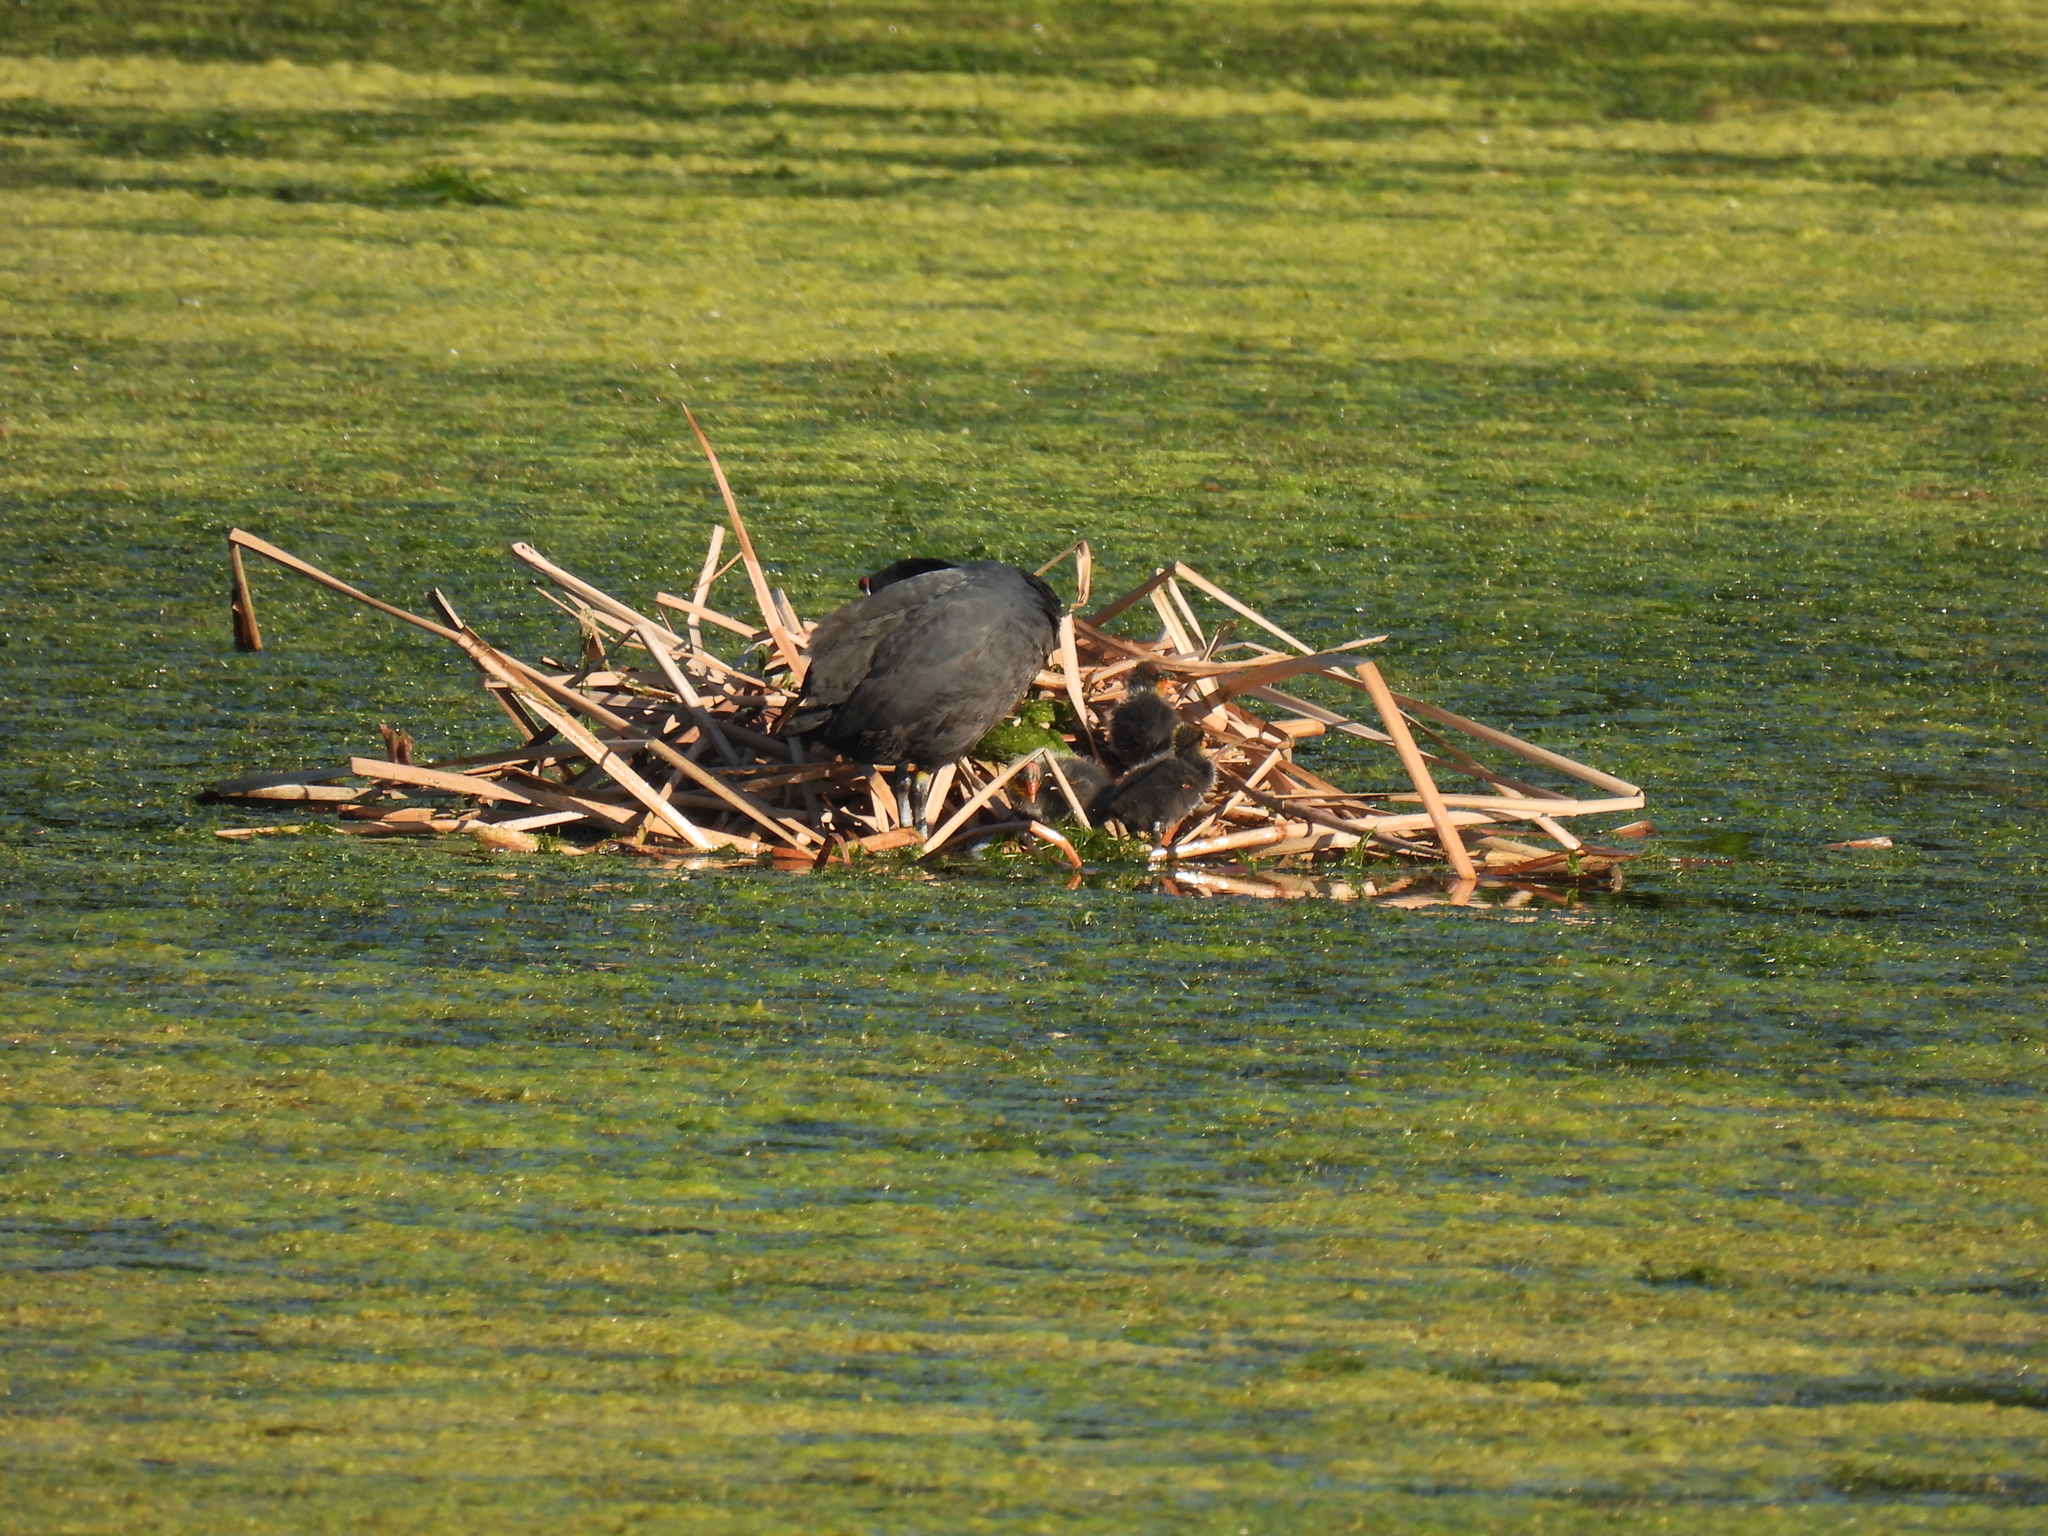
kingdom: Animalia
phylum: Chordata
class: Aves
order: Gruiformes
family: Rallidae
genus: Fulica
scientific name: Fulica cristata
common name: Red-knobbed coot
